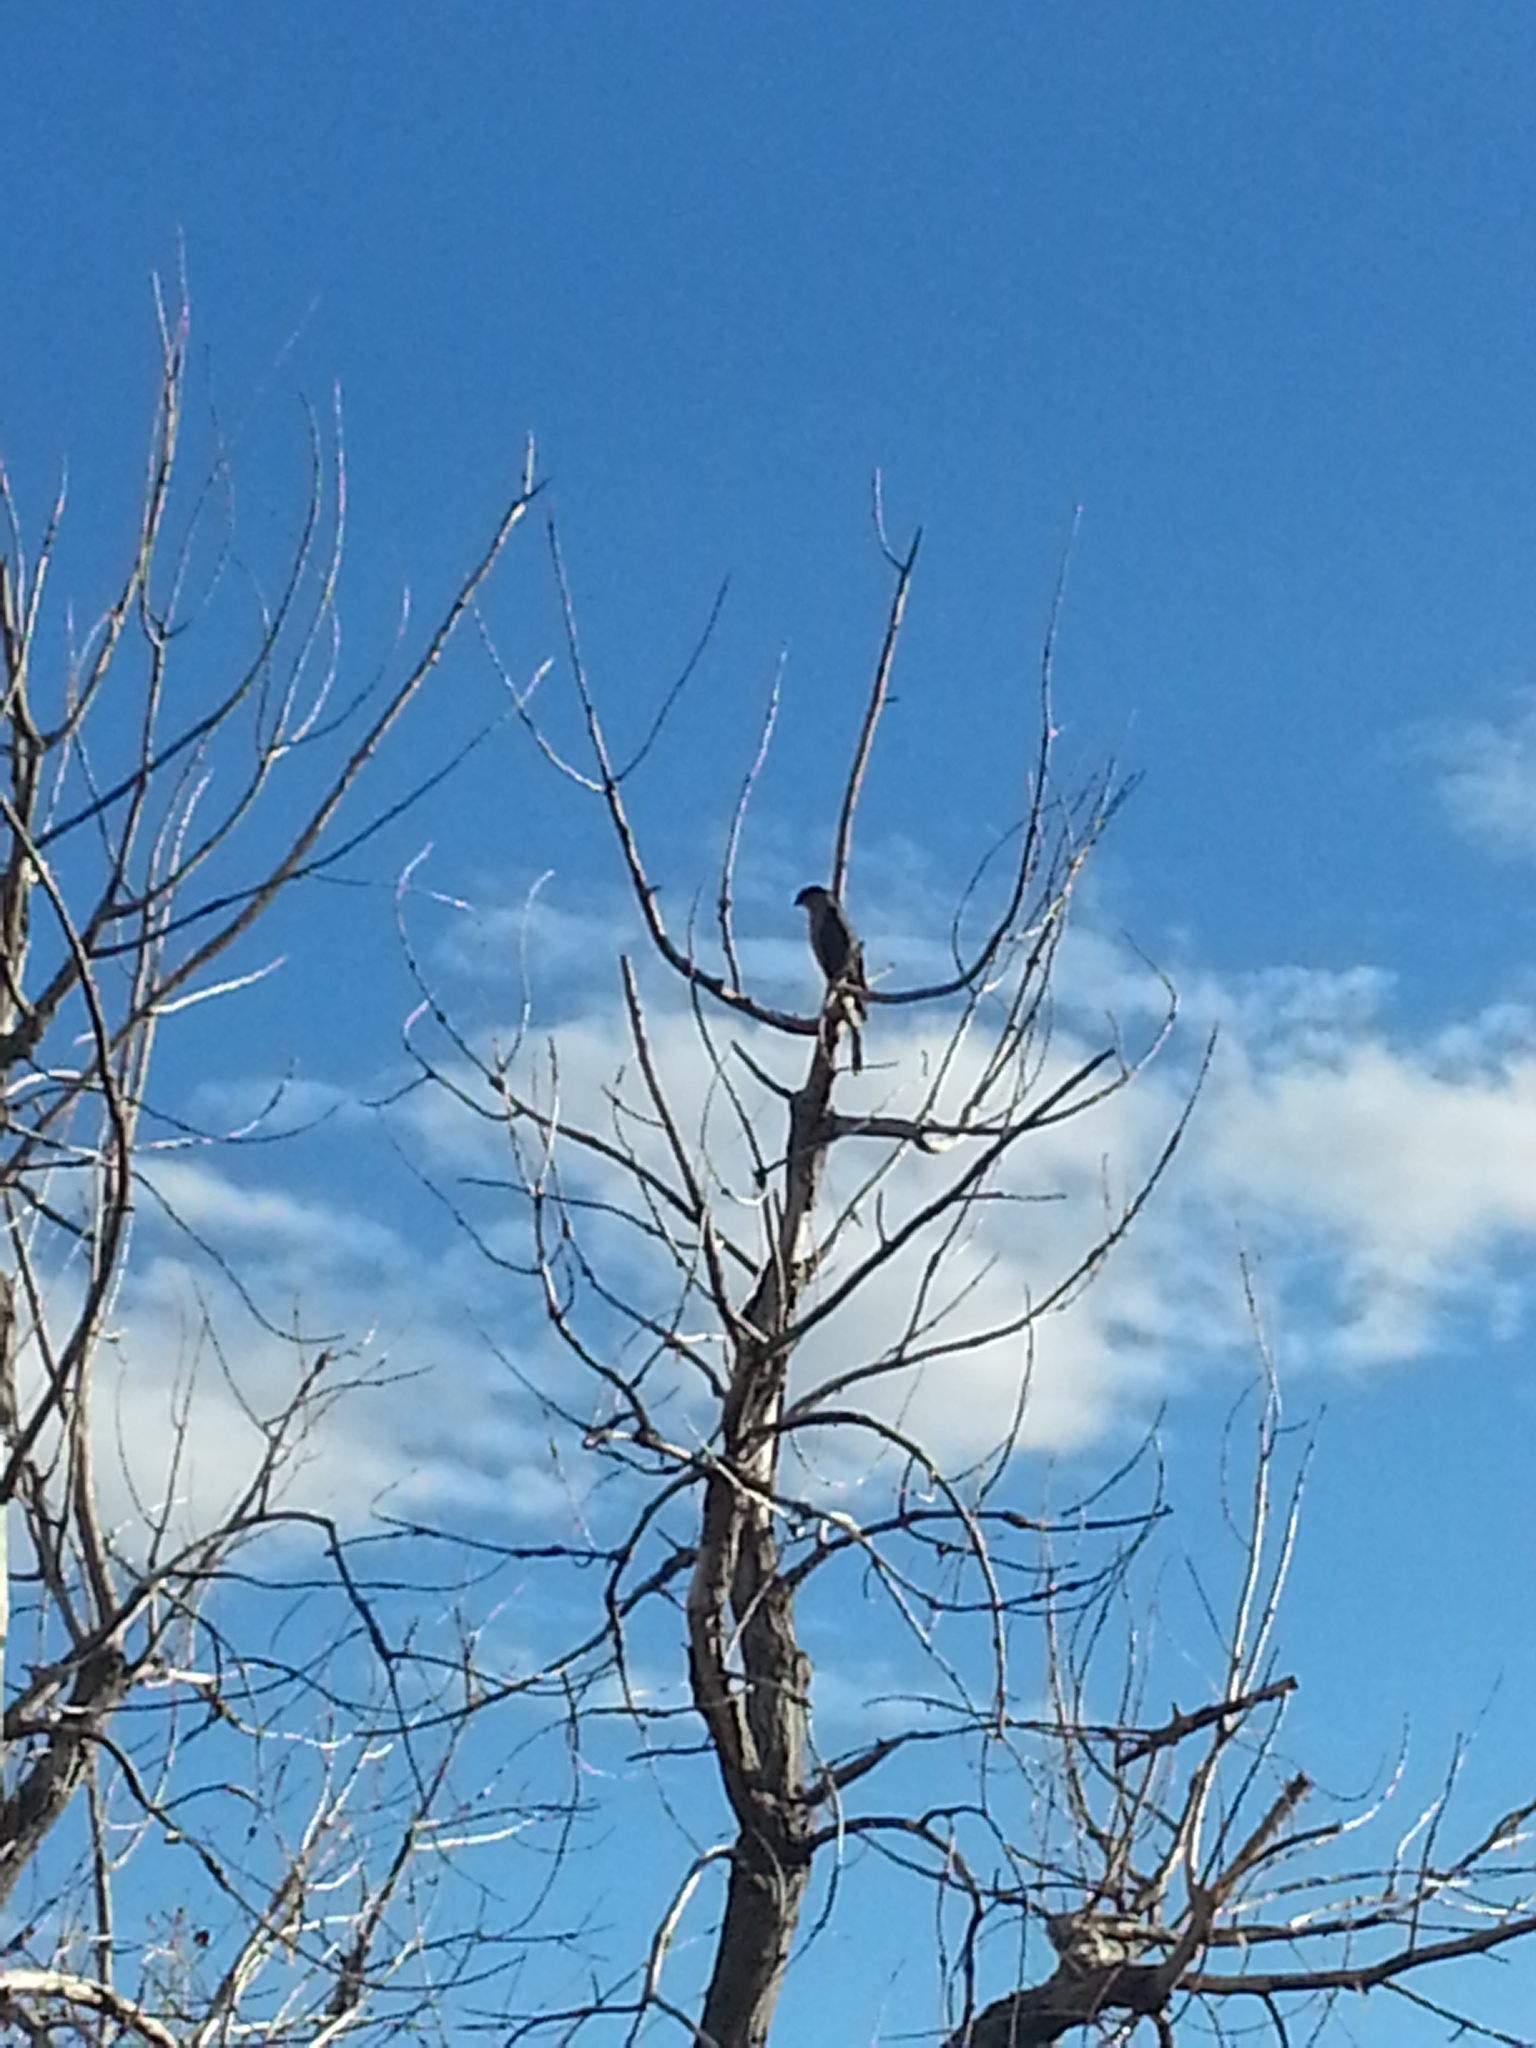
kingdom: Animalia
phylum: Chordata
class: Aves
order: Accipitriformes
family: Accipitridae
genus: Accipiter
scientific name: Accipiter cooperii
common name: Cooper's hawk
